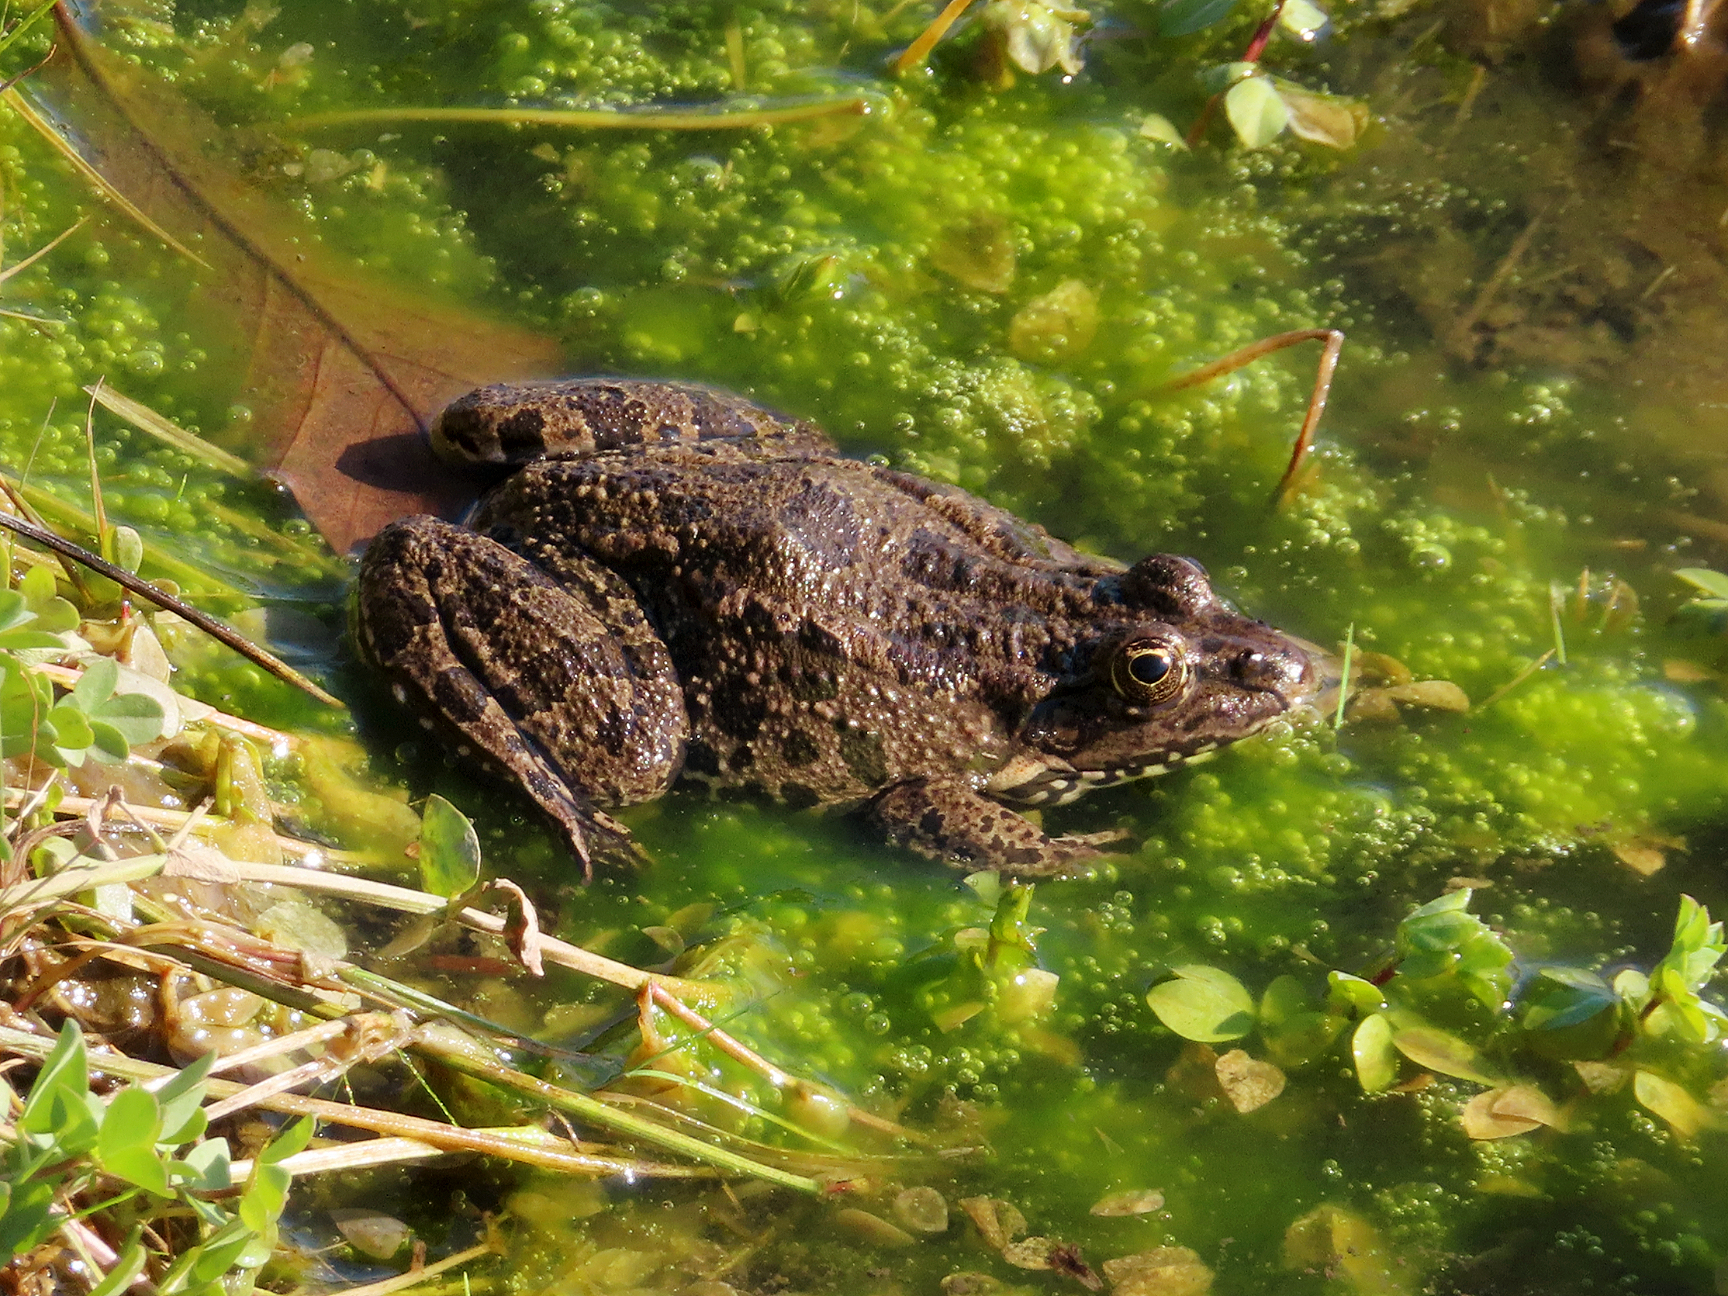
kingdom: Animalia
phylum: Chordata
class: Amphibia
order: Anura
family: Ranidae
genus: Pelophylax
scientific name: Pelophylax ridibundus
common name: Marsh frog
